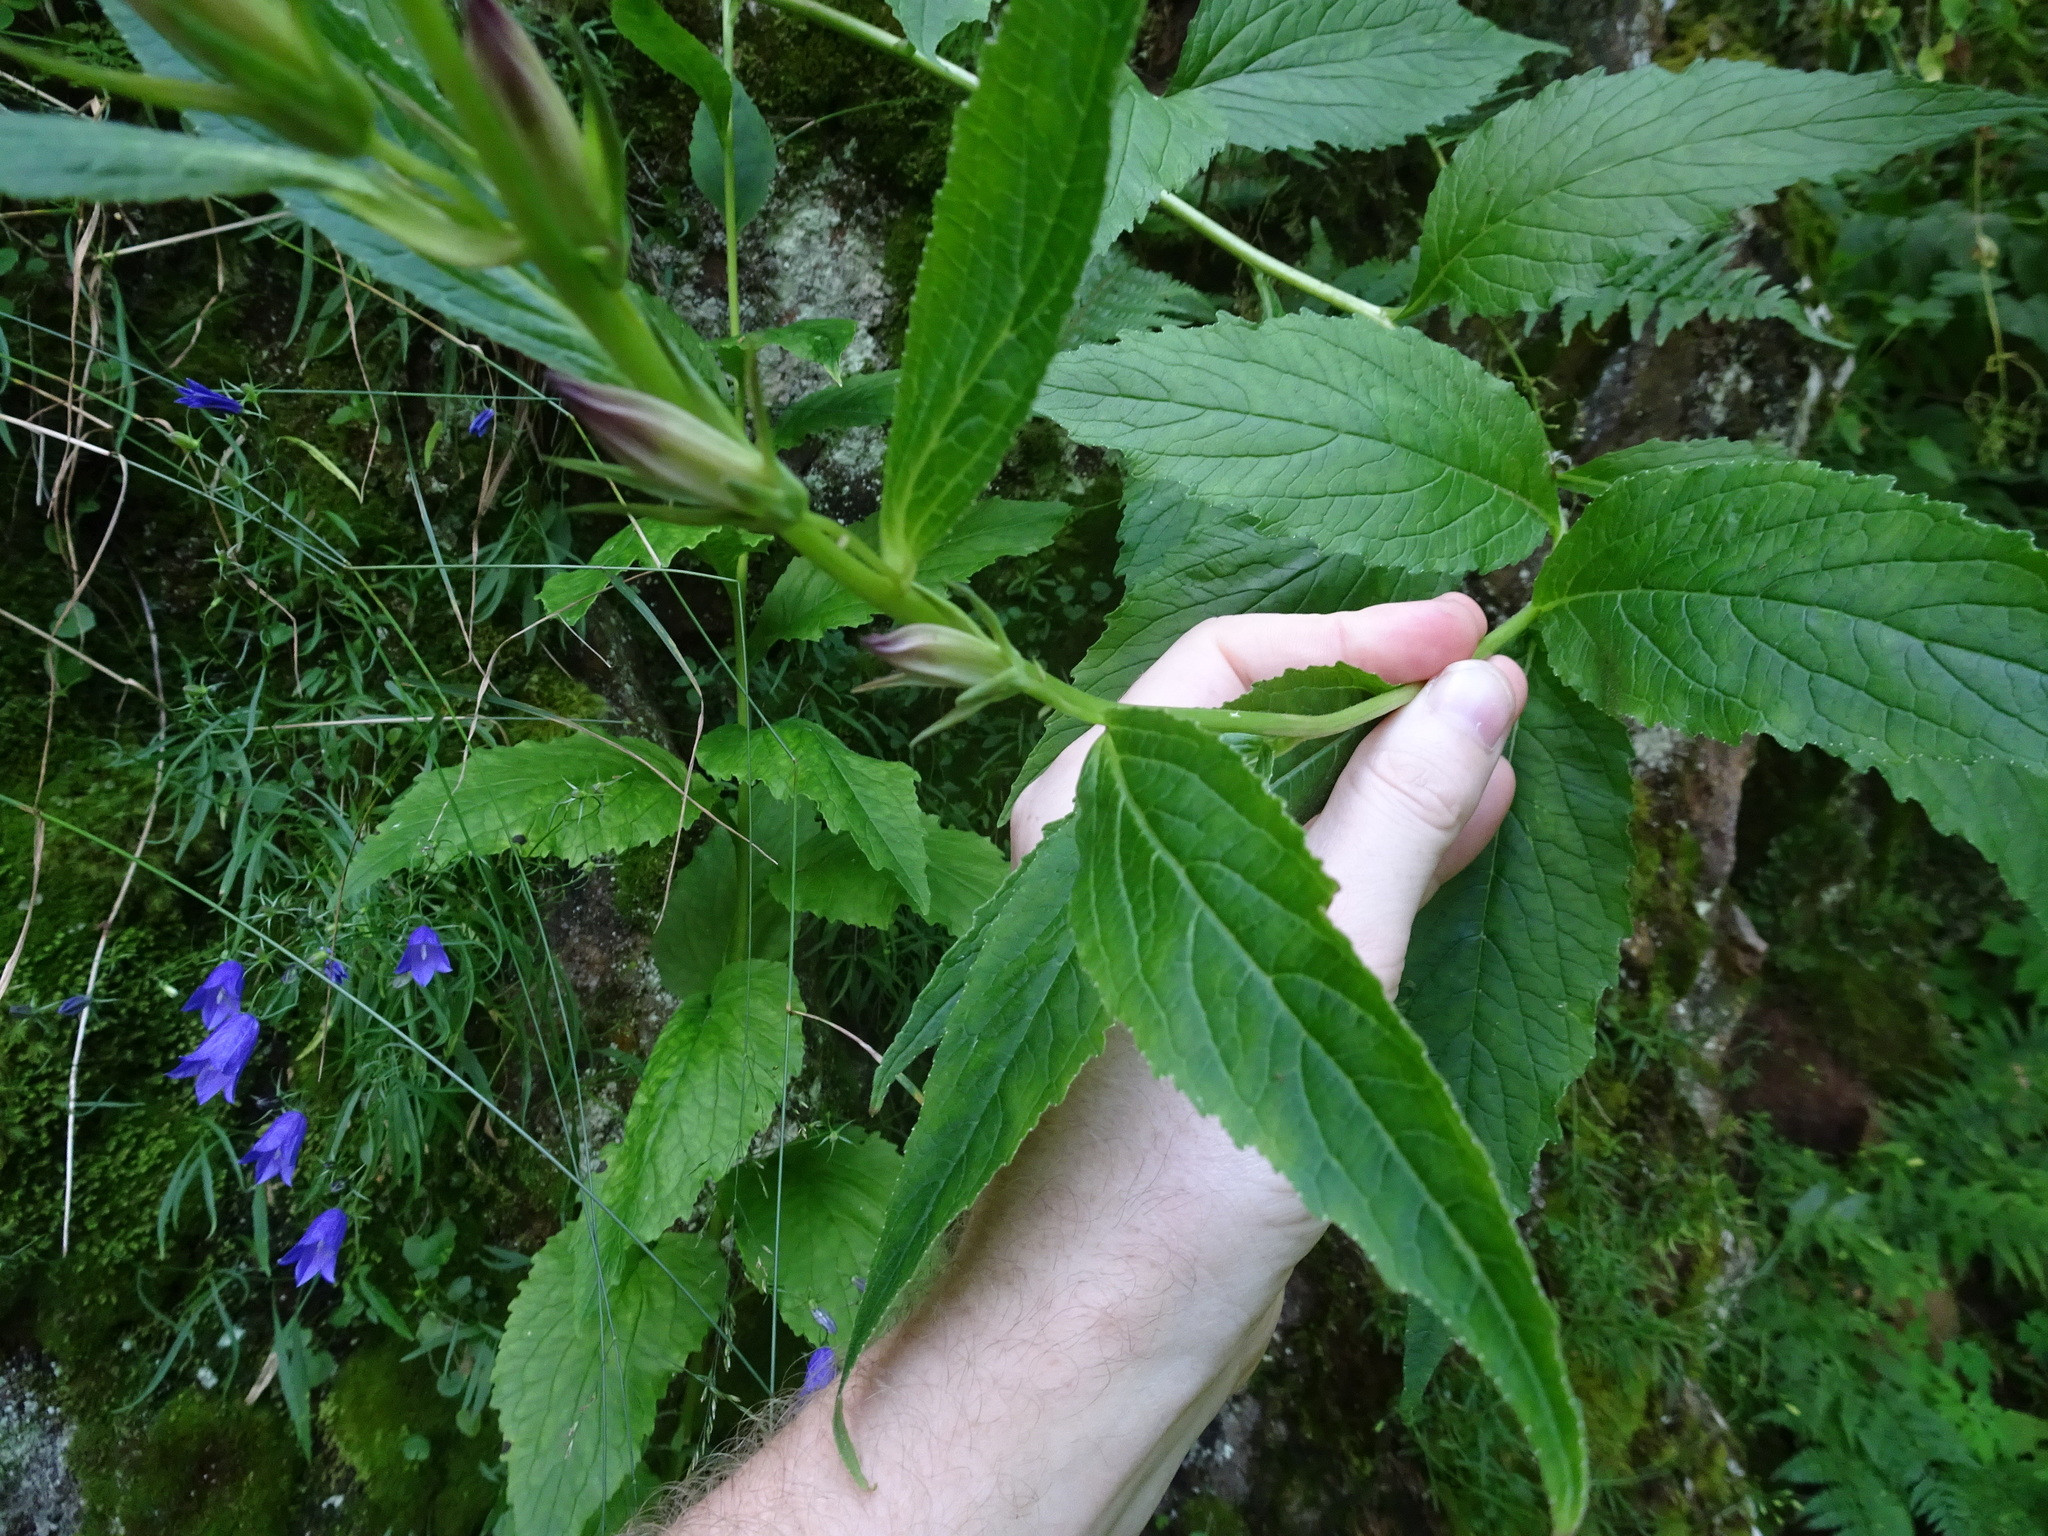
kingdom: Plantae
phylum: Tracheophyta
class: Magnoliopsida
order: Asterales
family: Campanulaceae
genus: Campanula
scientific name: Campanula latifolia
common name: Giant bellflower
